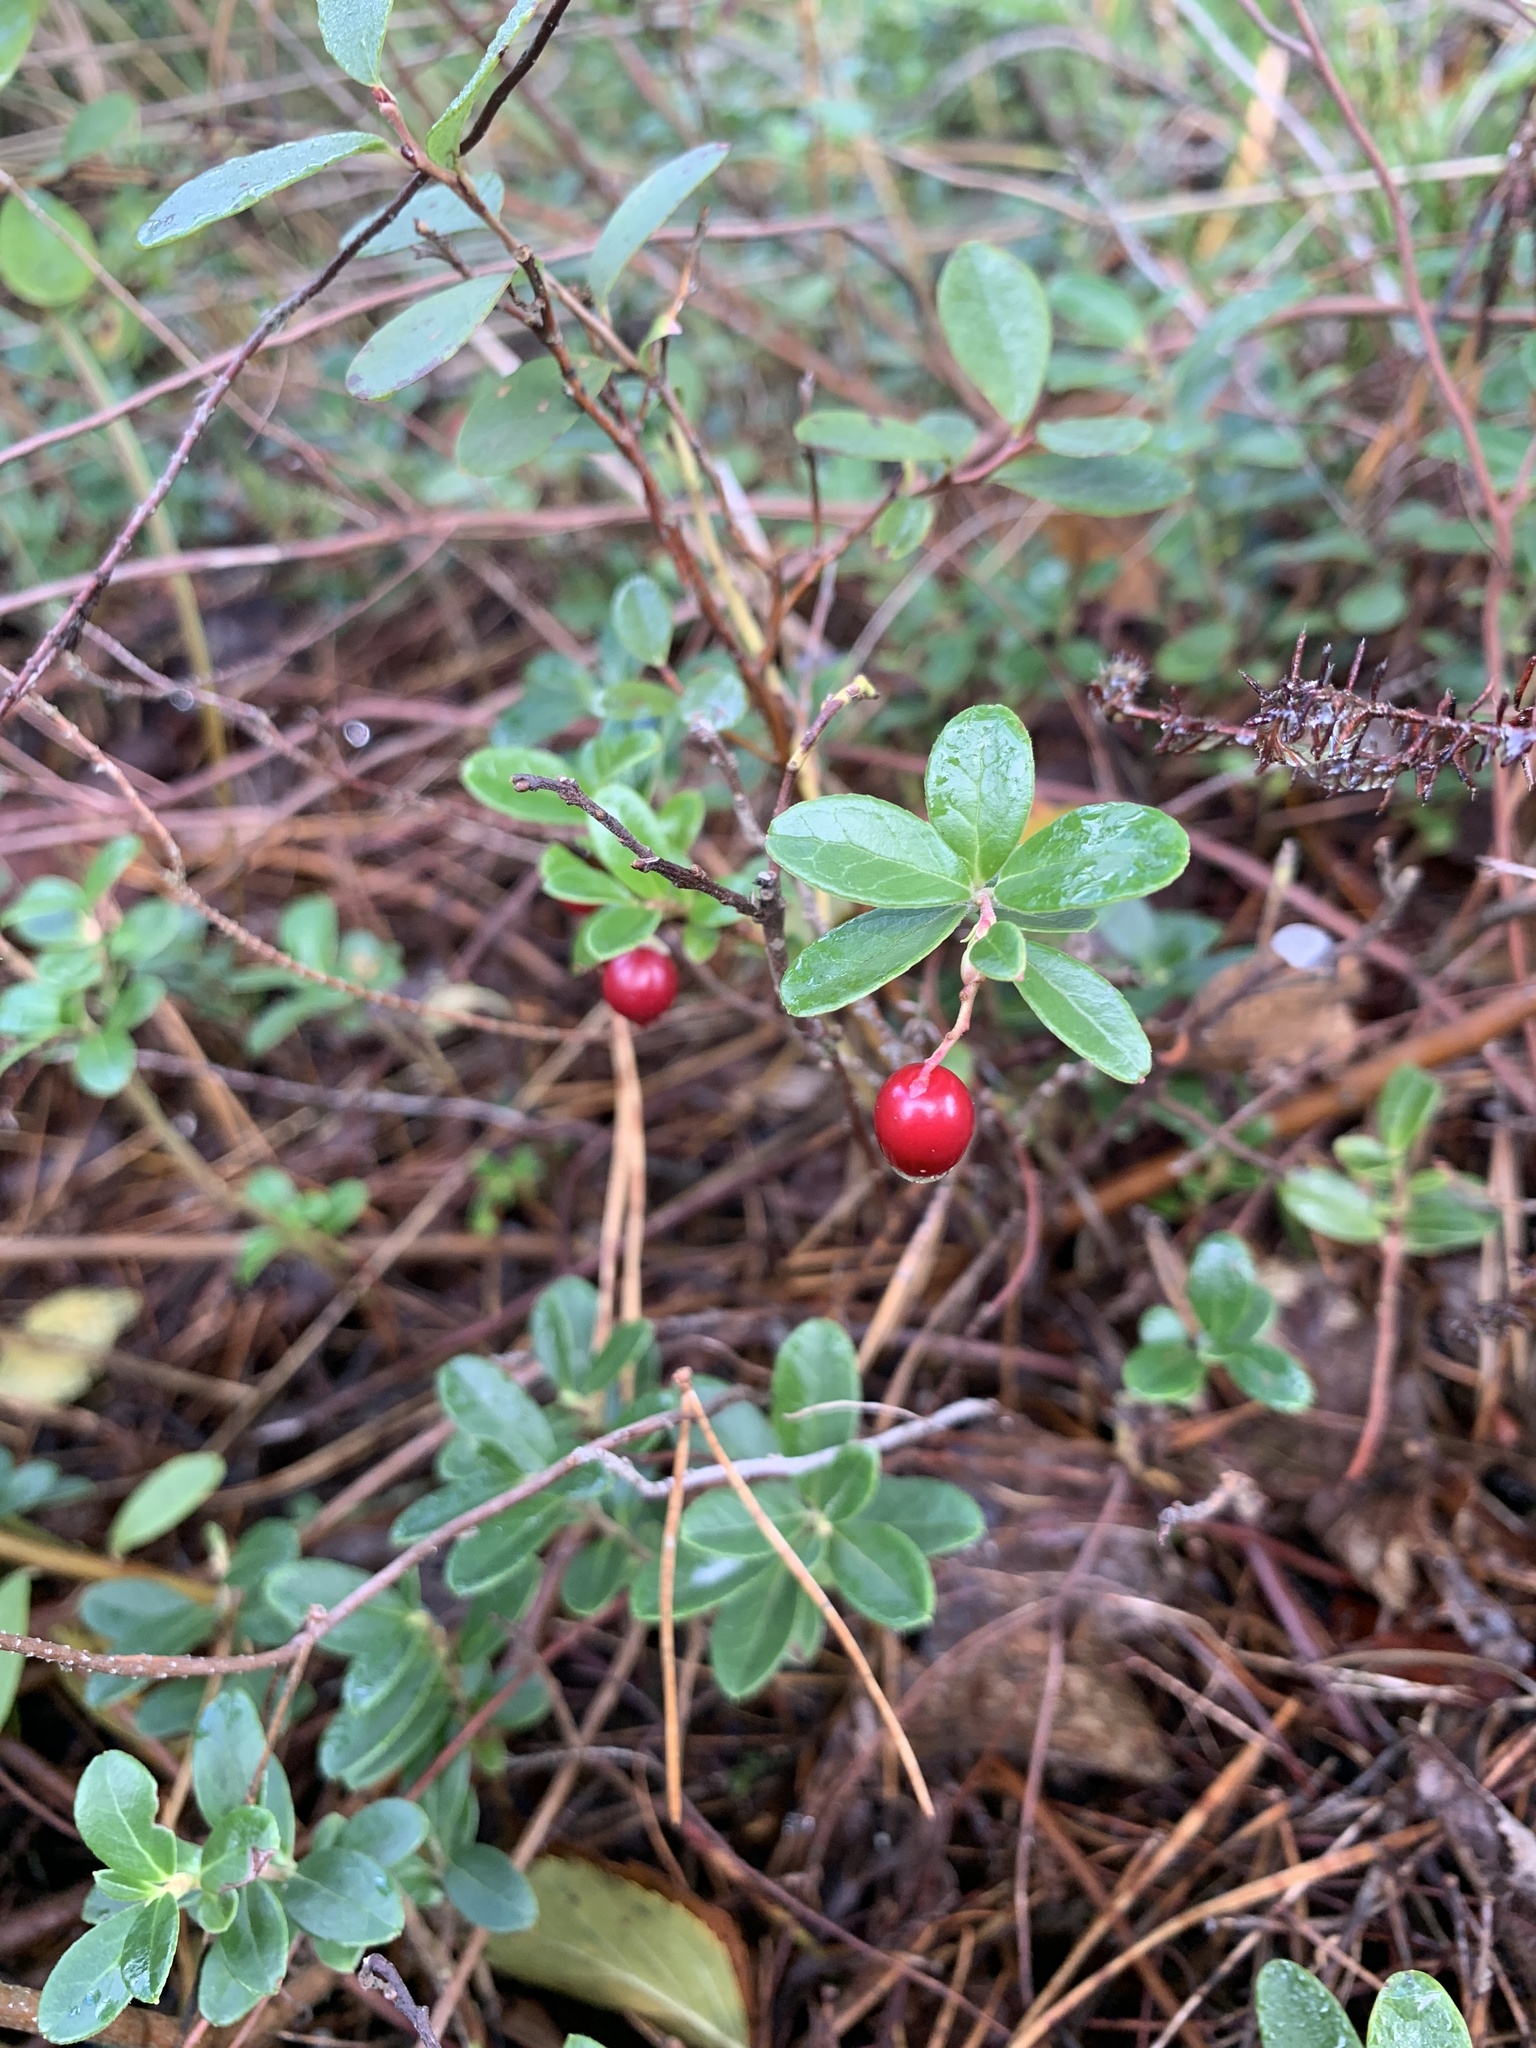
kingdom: Plantae
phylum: Tracheophyta
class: Magnoliopsida
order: Ericales
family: Ericaceae
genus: Vaccinium
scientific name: Vaccinium vitis-idaea
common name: Cowberry
